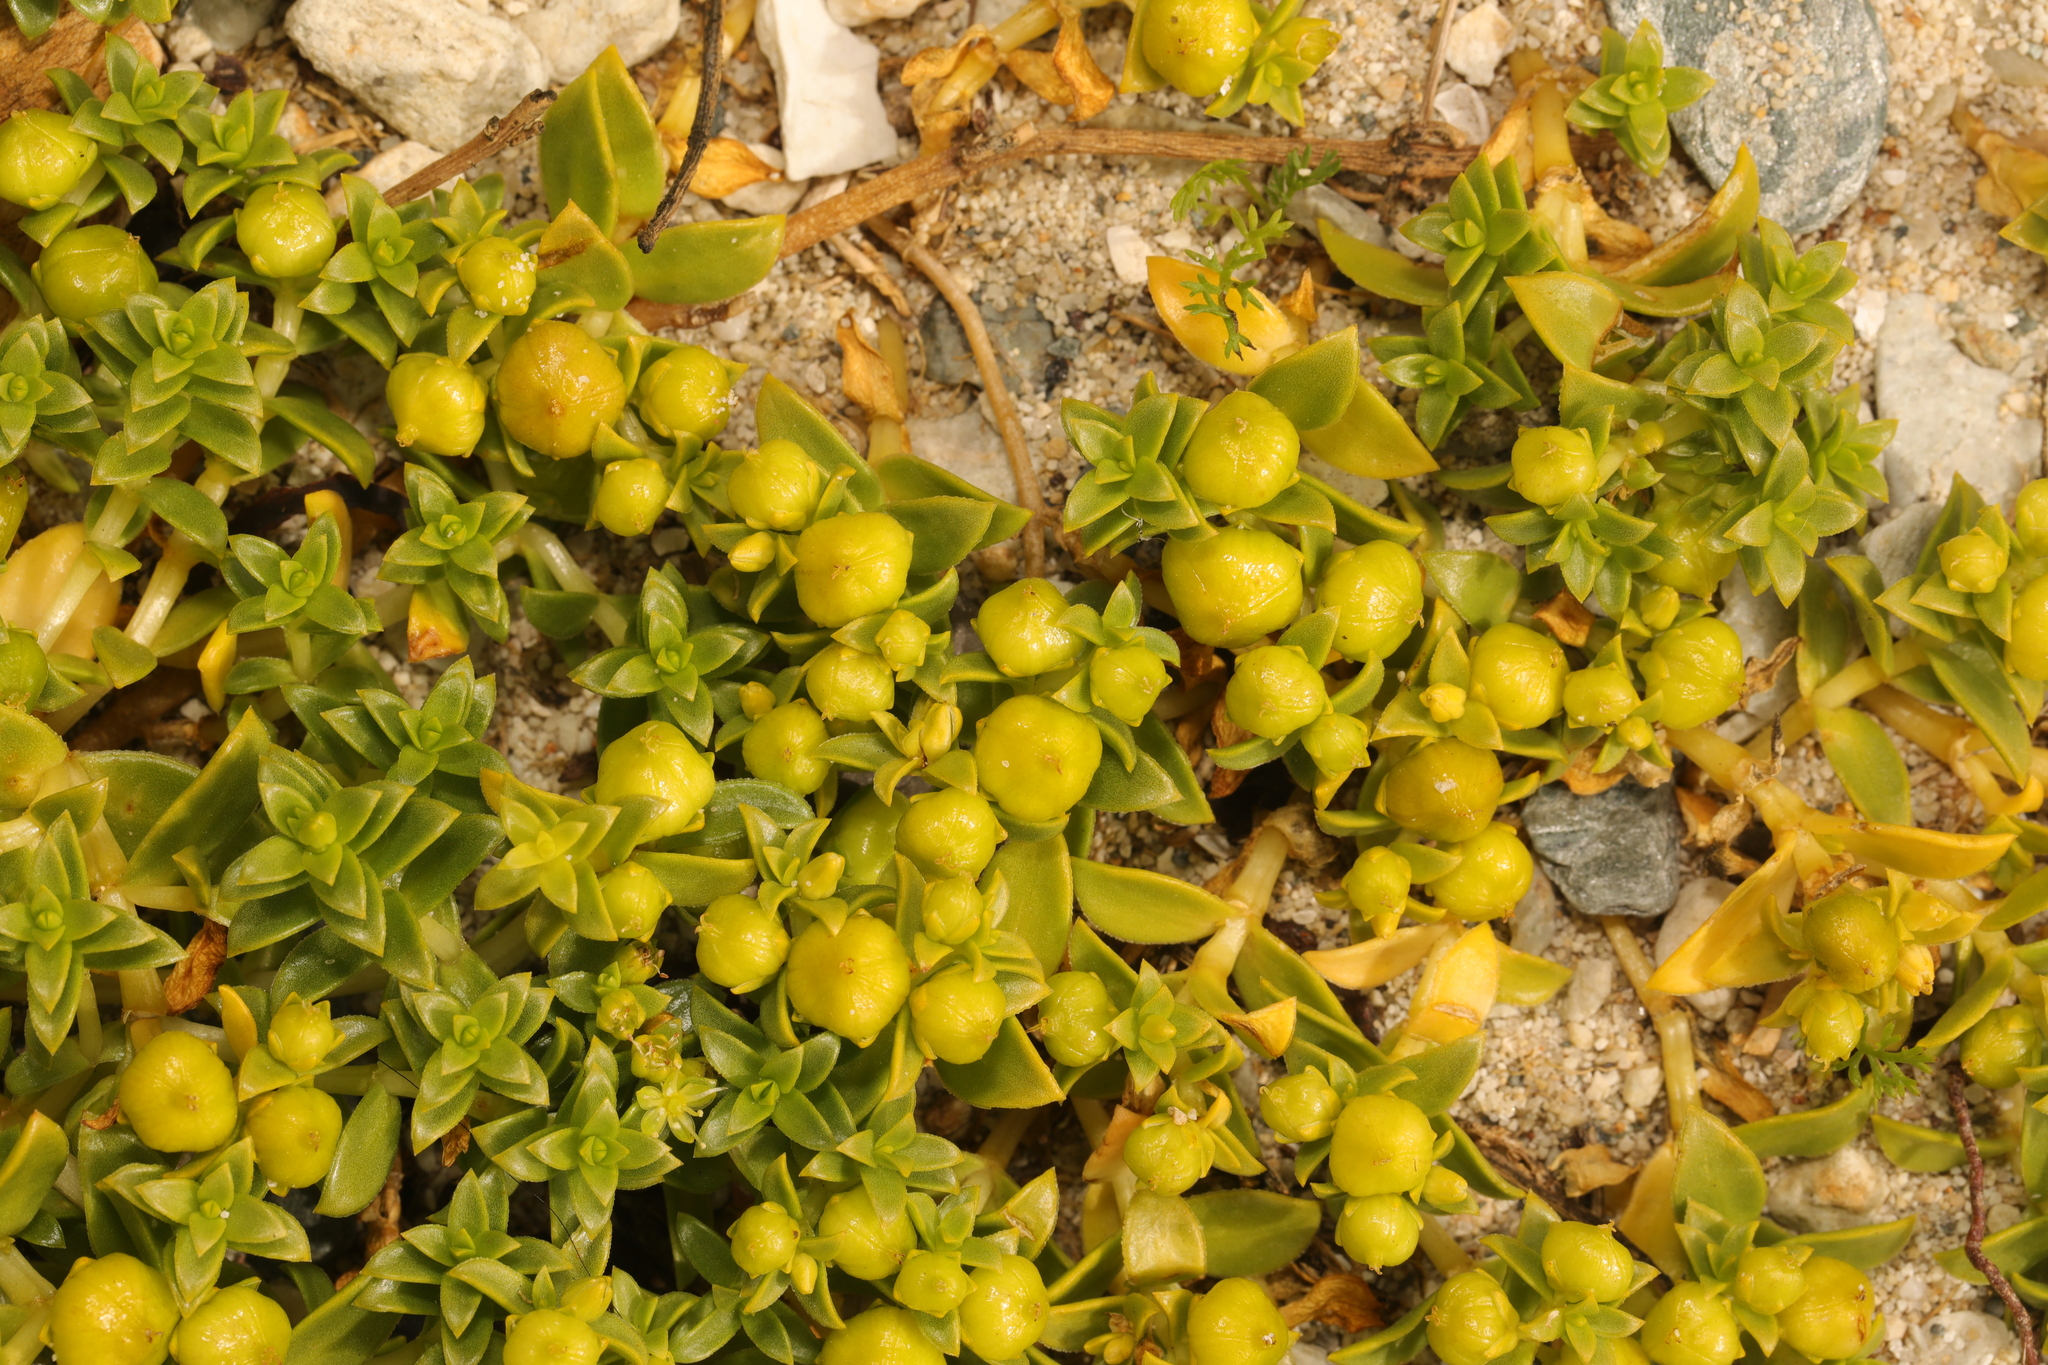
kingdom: Plantae
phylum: Tracheophyta
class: Magnoliopsida
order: Caryophyllales
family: Caryophyllaceae
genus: Honckenya
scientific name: Honckenya peploides
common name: Sea sandwort
